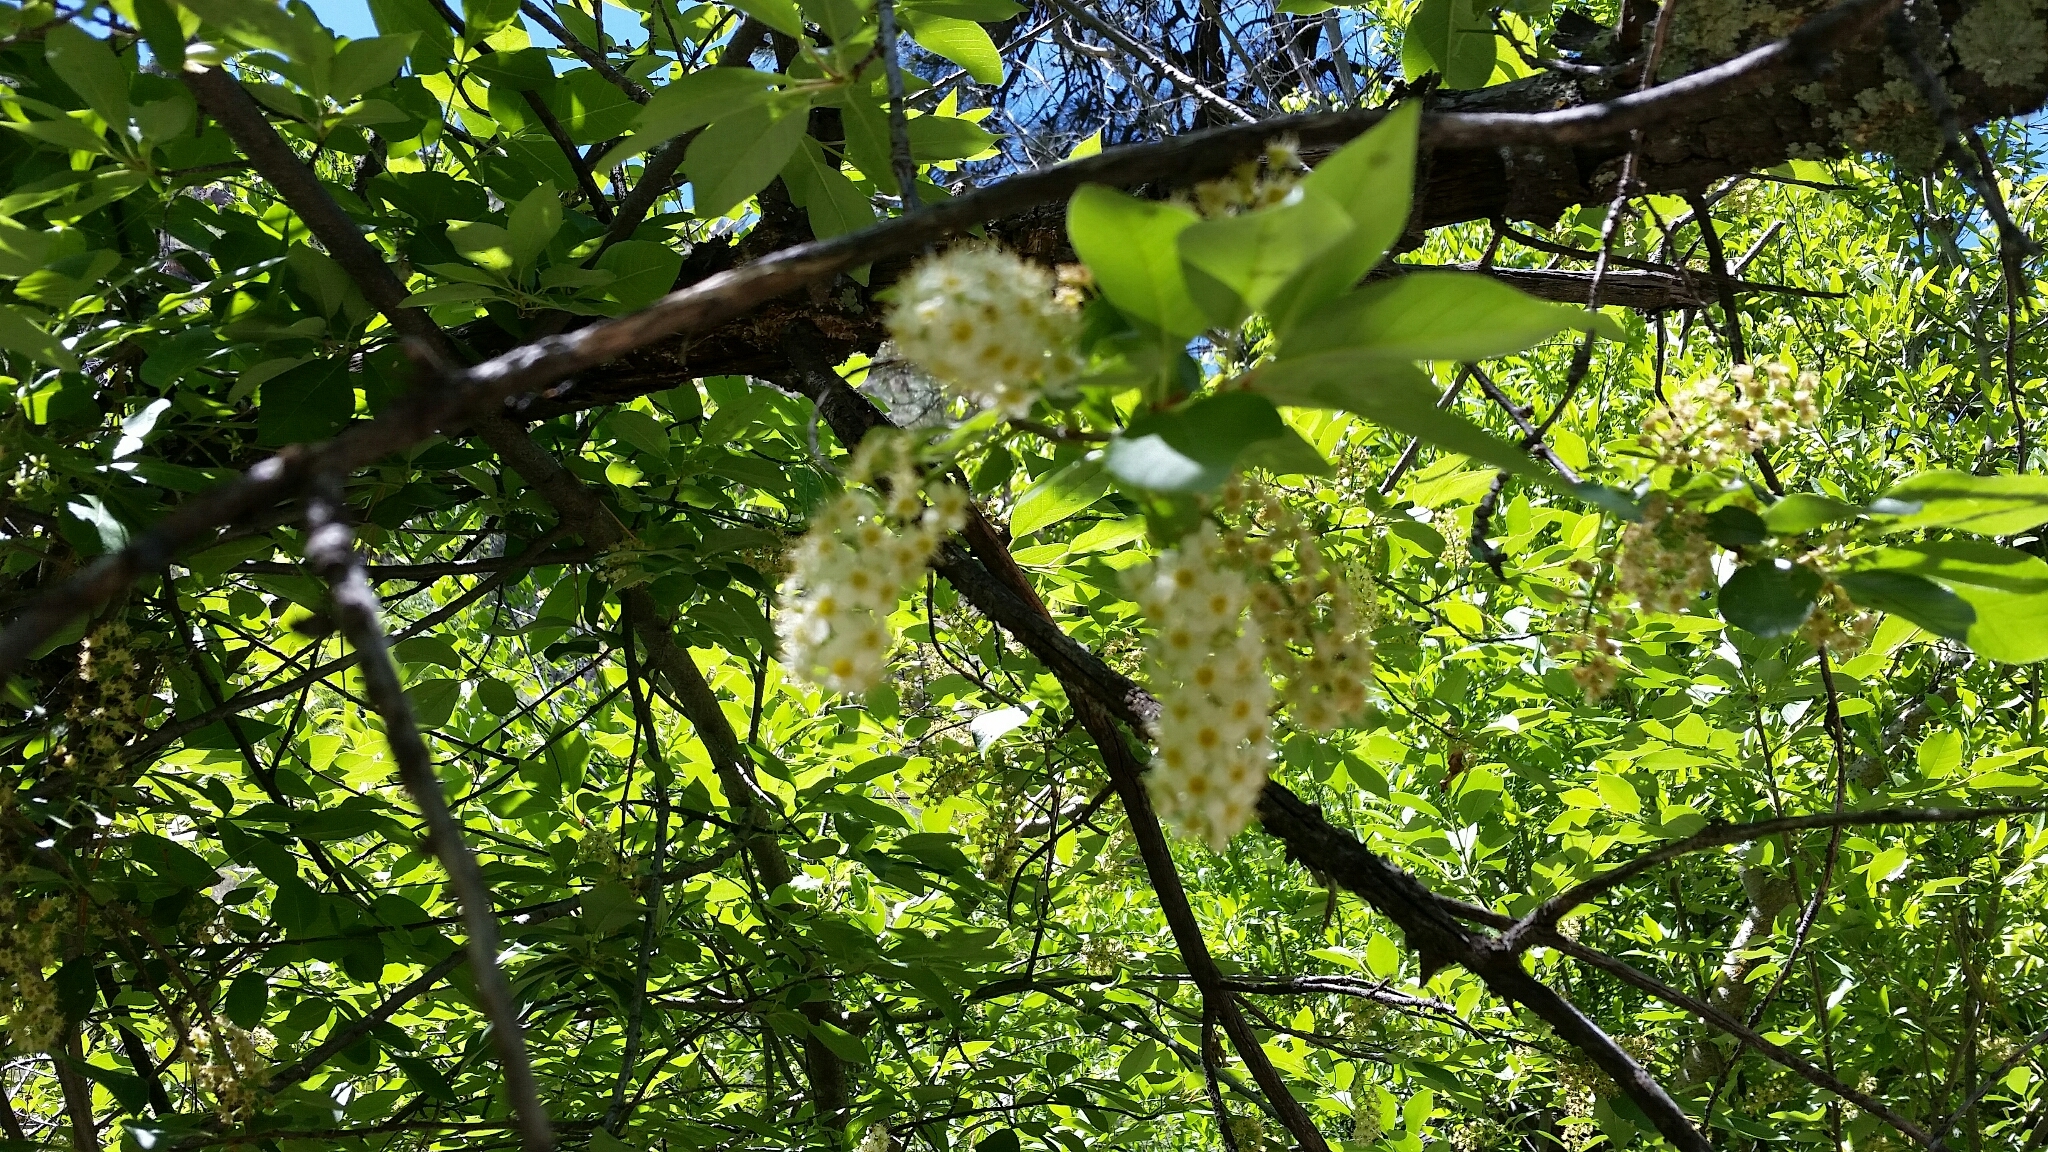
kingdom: Plantae
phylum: Tracheophyta
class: Magnoliopsida
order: Rosales
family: Rosaceae
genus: Prunus
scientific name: Prunus virginiana
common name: Chokecherry
